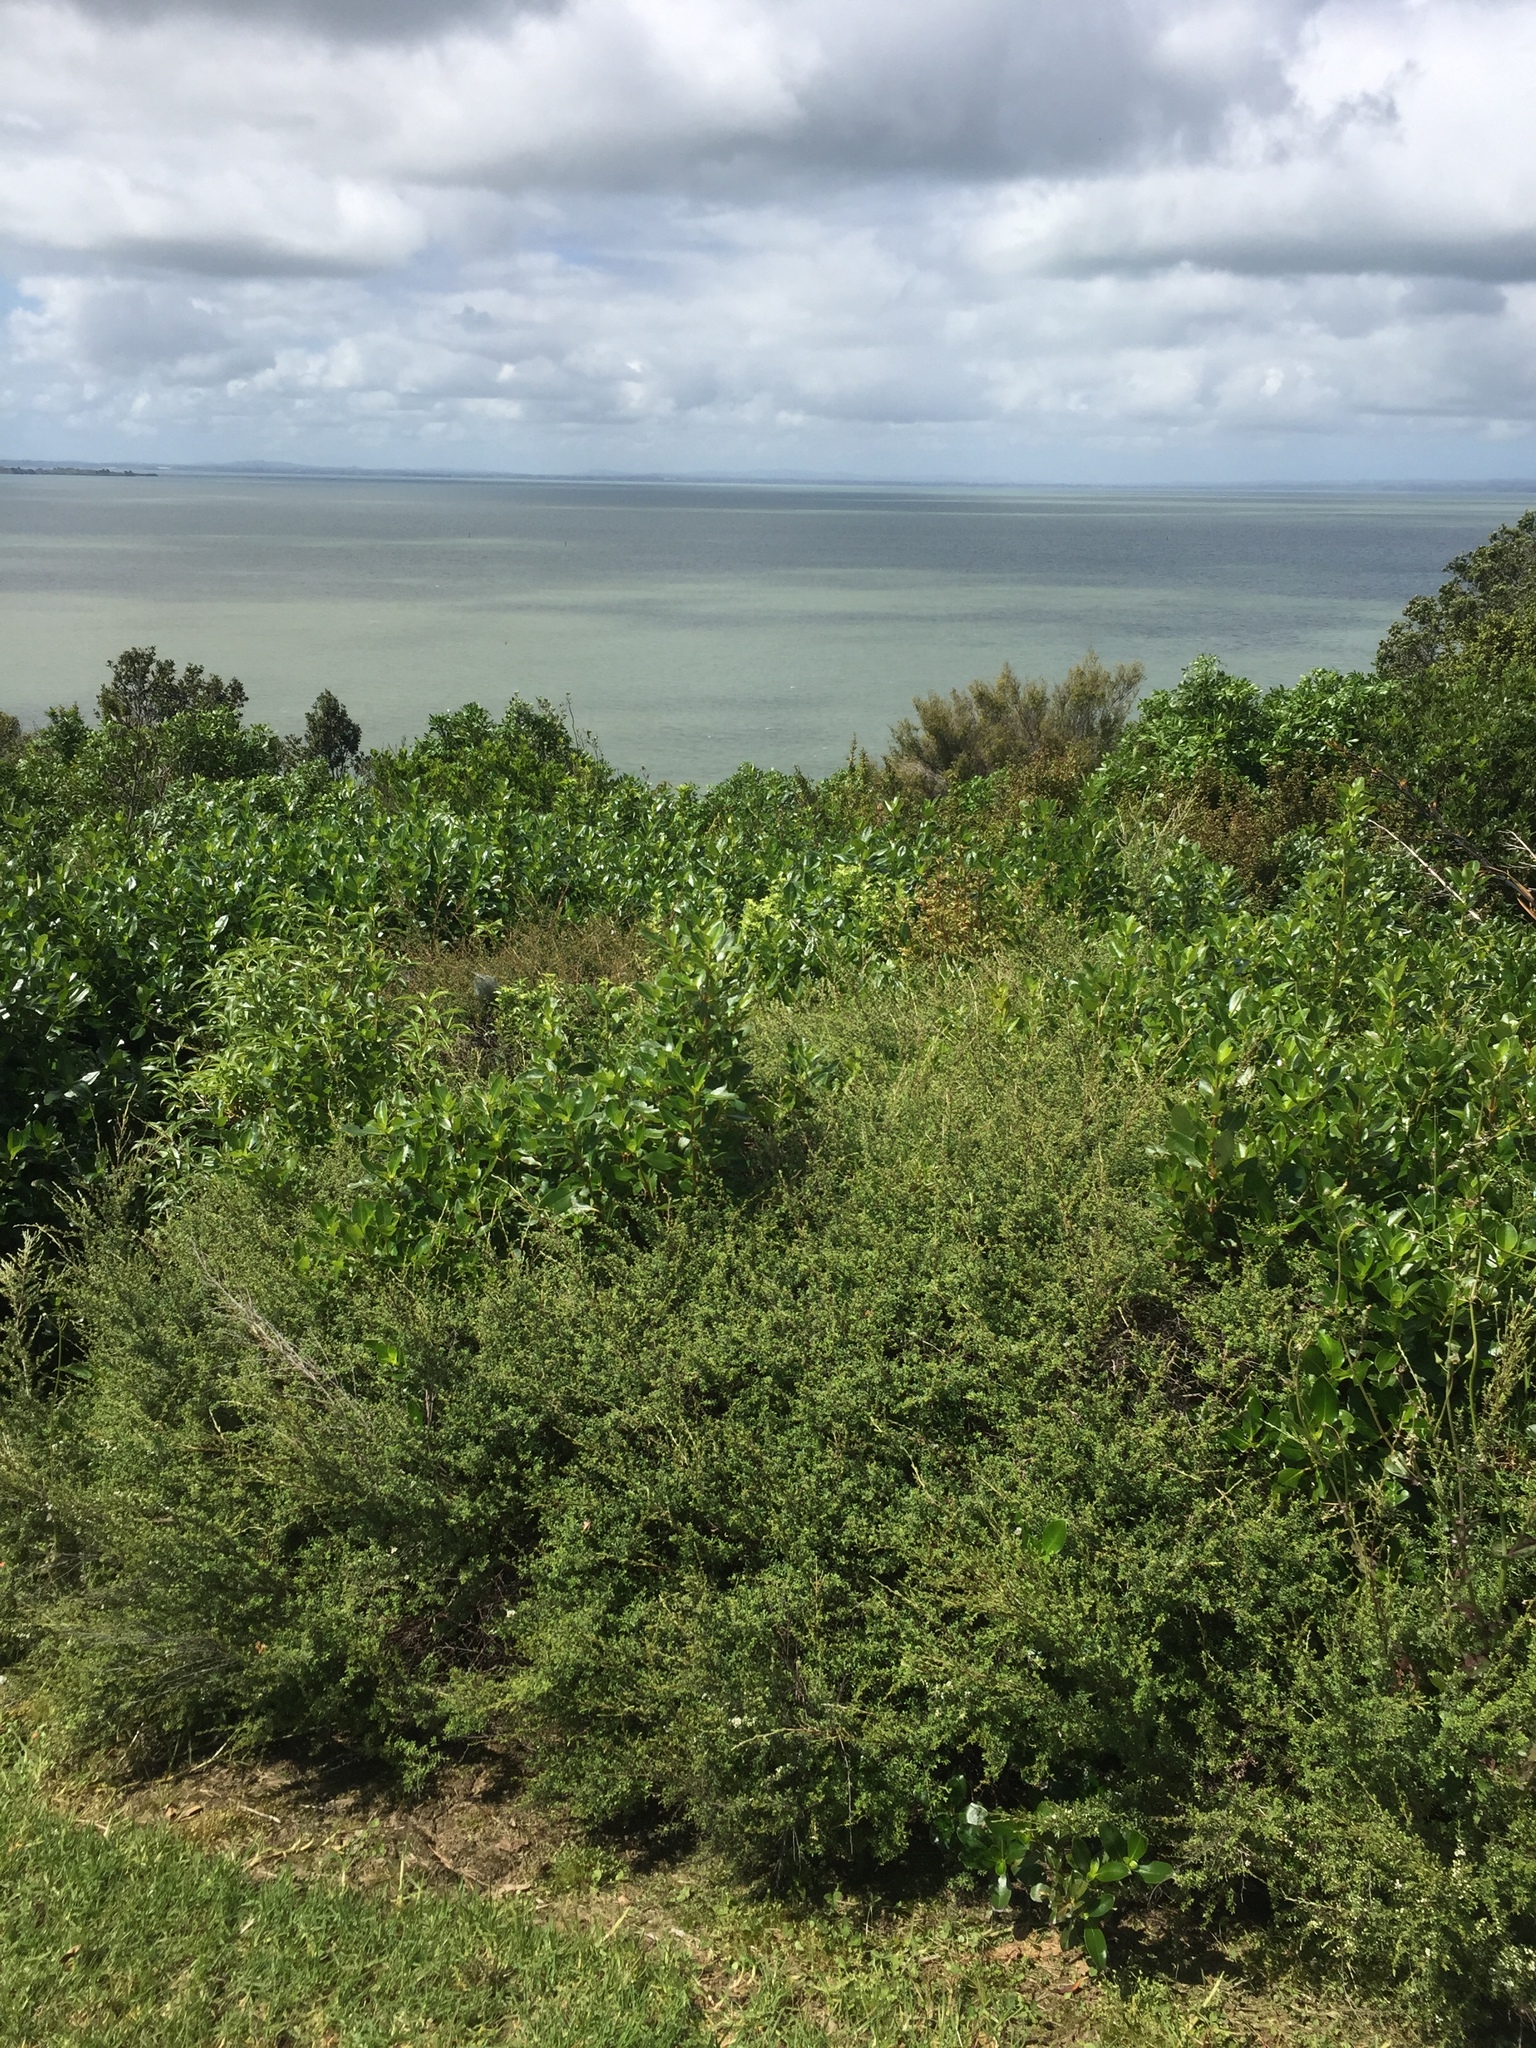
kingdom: Animalia
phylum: Arthropoda
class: Insecta
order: Strepsiptera
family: Halictophagidae
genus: Coriophagus
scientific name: Coriophagus casui
